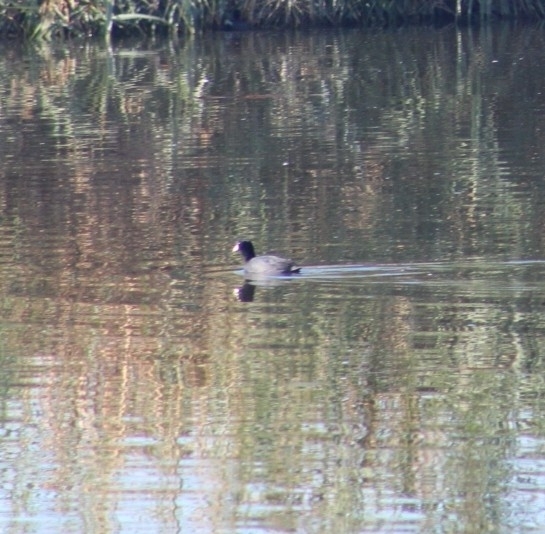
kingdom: Animalia
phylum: Chordata
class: Aves
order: Gruiformes
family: Rallidae
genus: Fulica
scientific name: Fulica americana
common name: American coot
